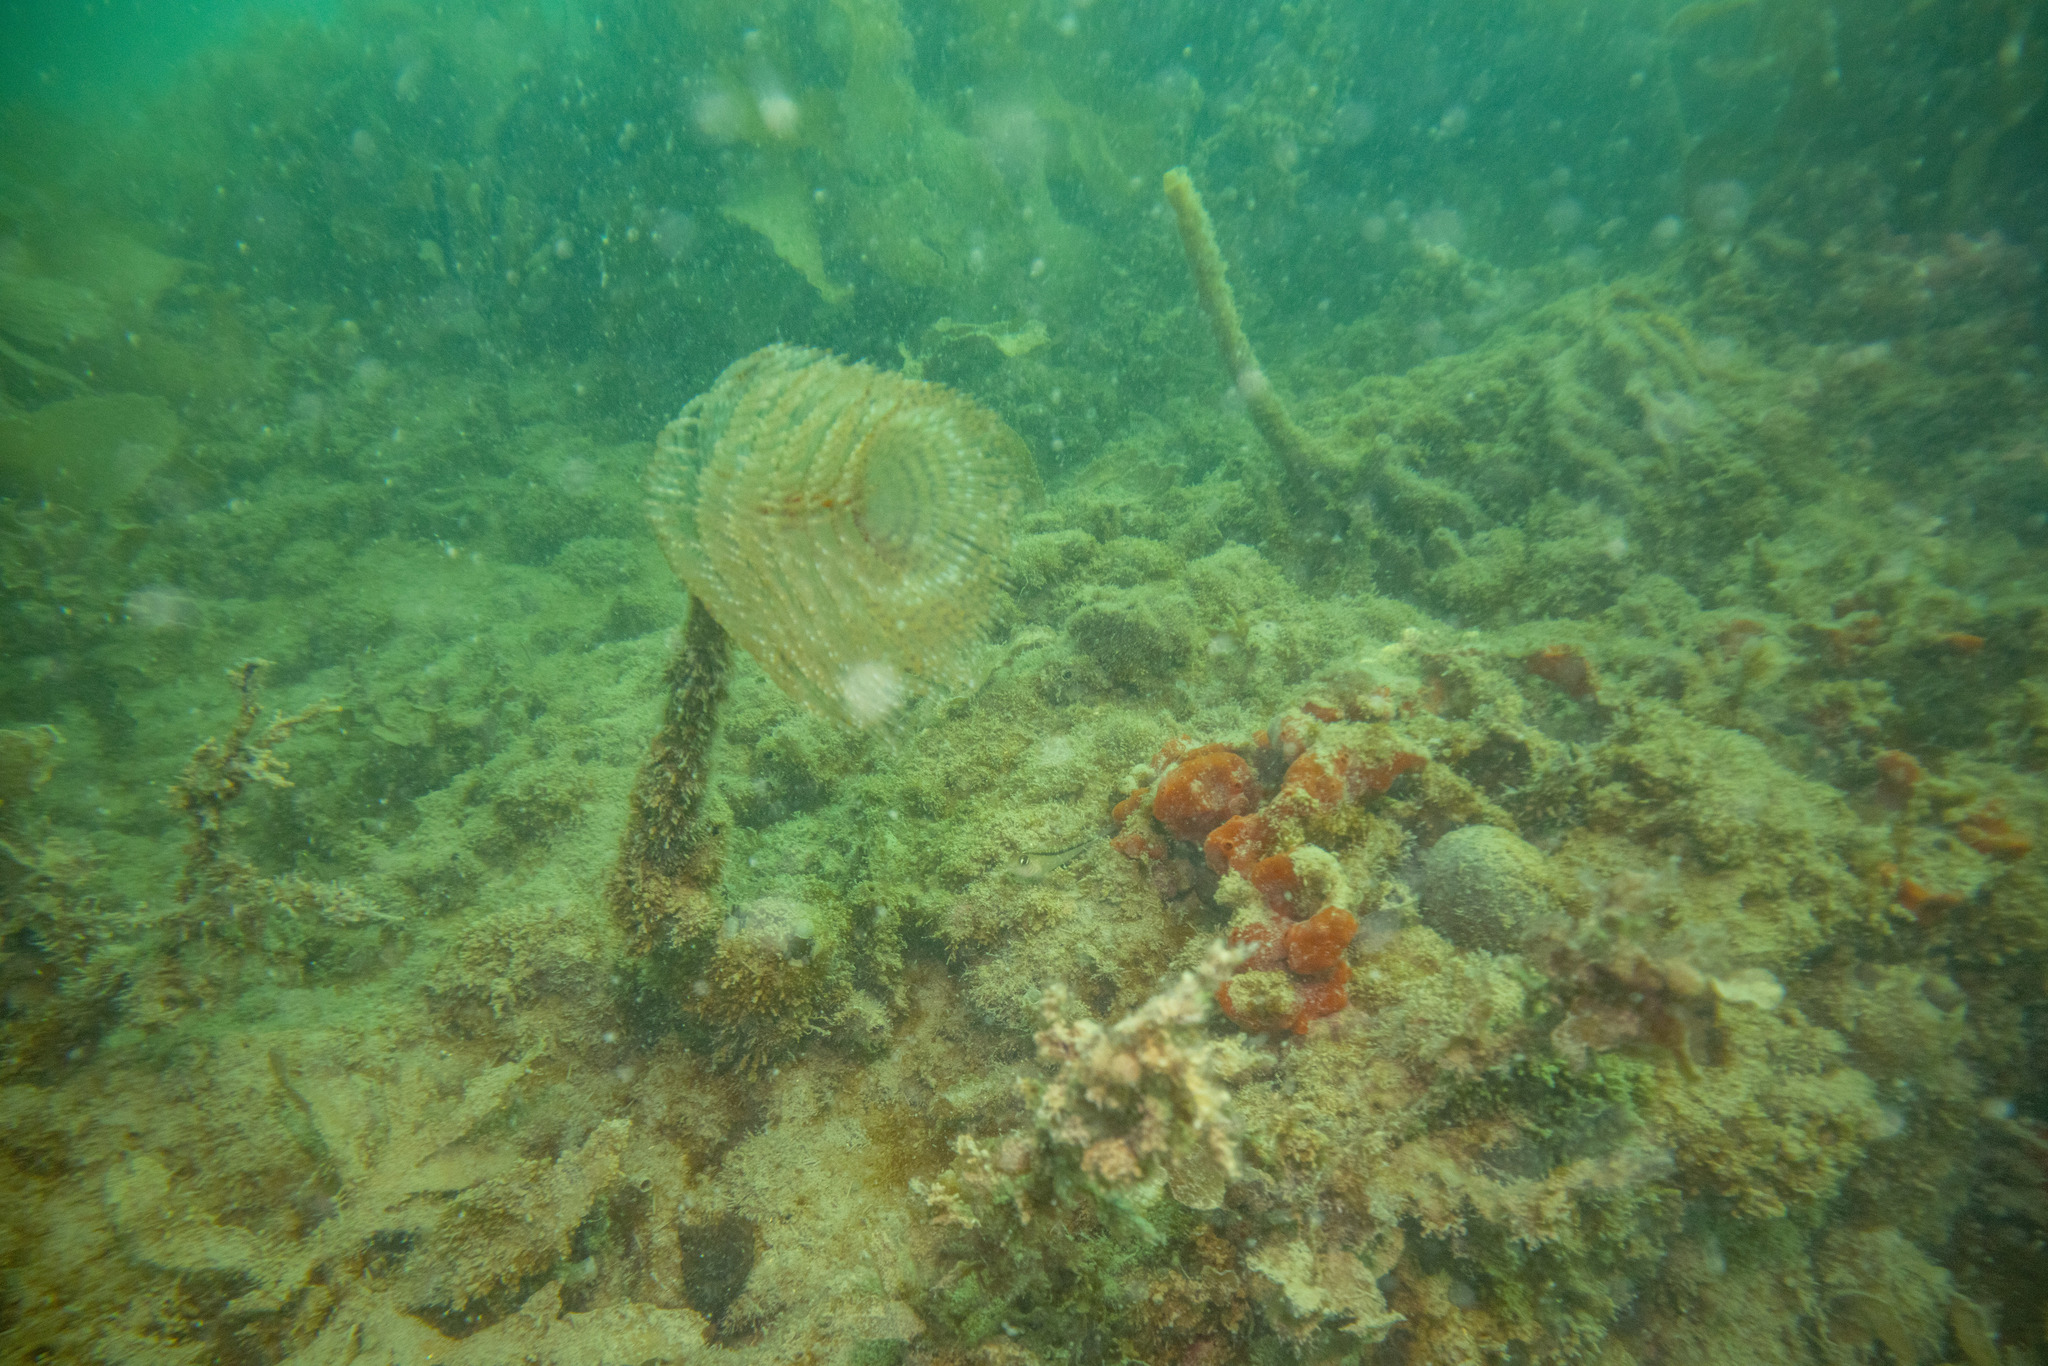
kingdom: Animalia
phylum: Annelida
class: Polychaeta
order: Sabellida
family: Sabellidae
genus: Sabella
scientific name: Sabella spallanzanii
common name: Feather duster worm
